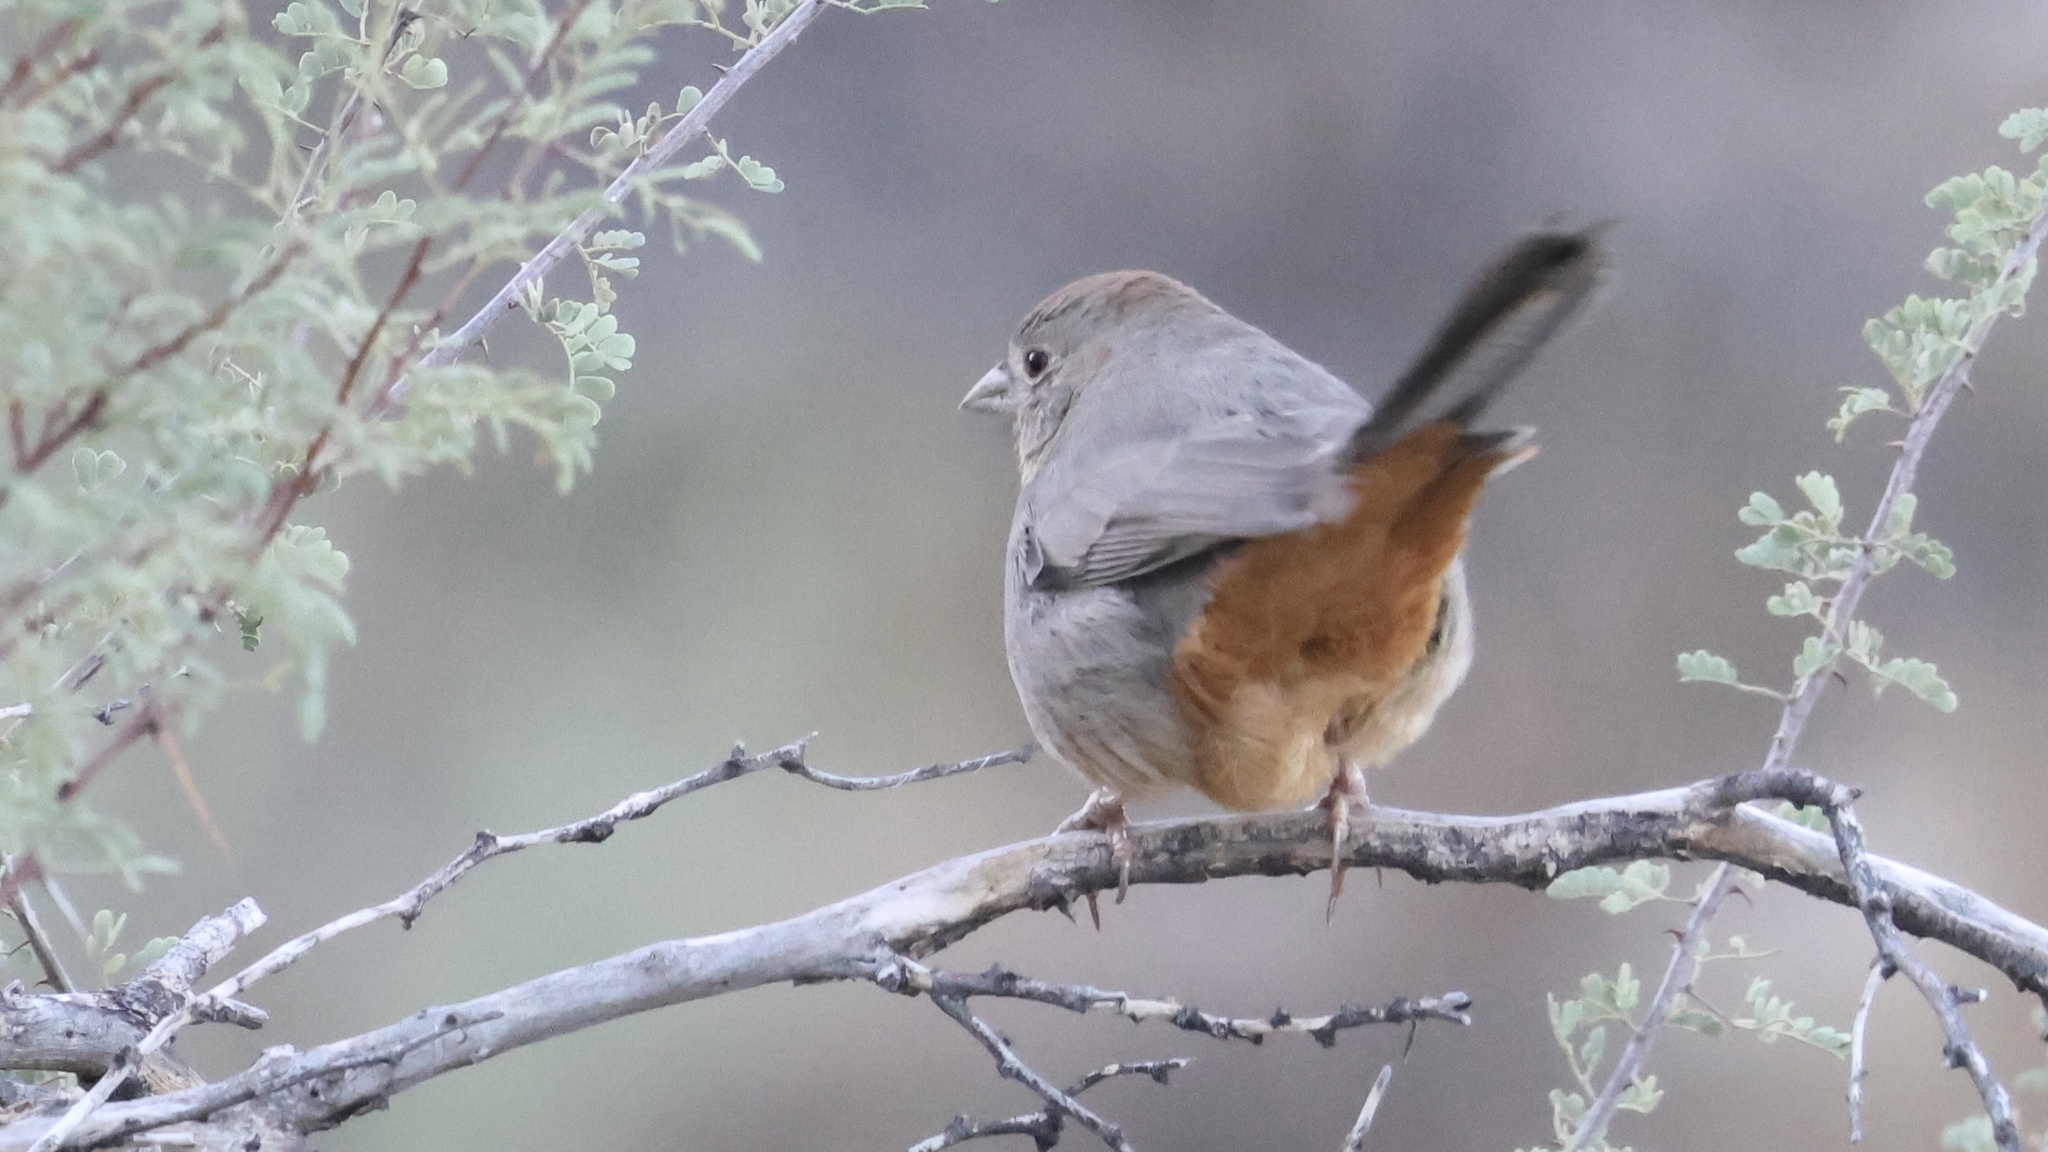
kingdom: Animalia
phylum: Chordata
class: Aves
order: Passeriformes
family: Passerellidae
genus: Melozone
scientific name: Melozone fusca
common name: Canyon towhee
